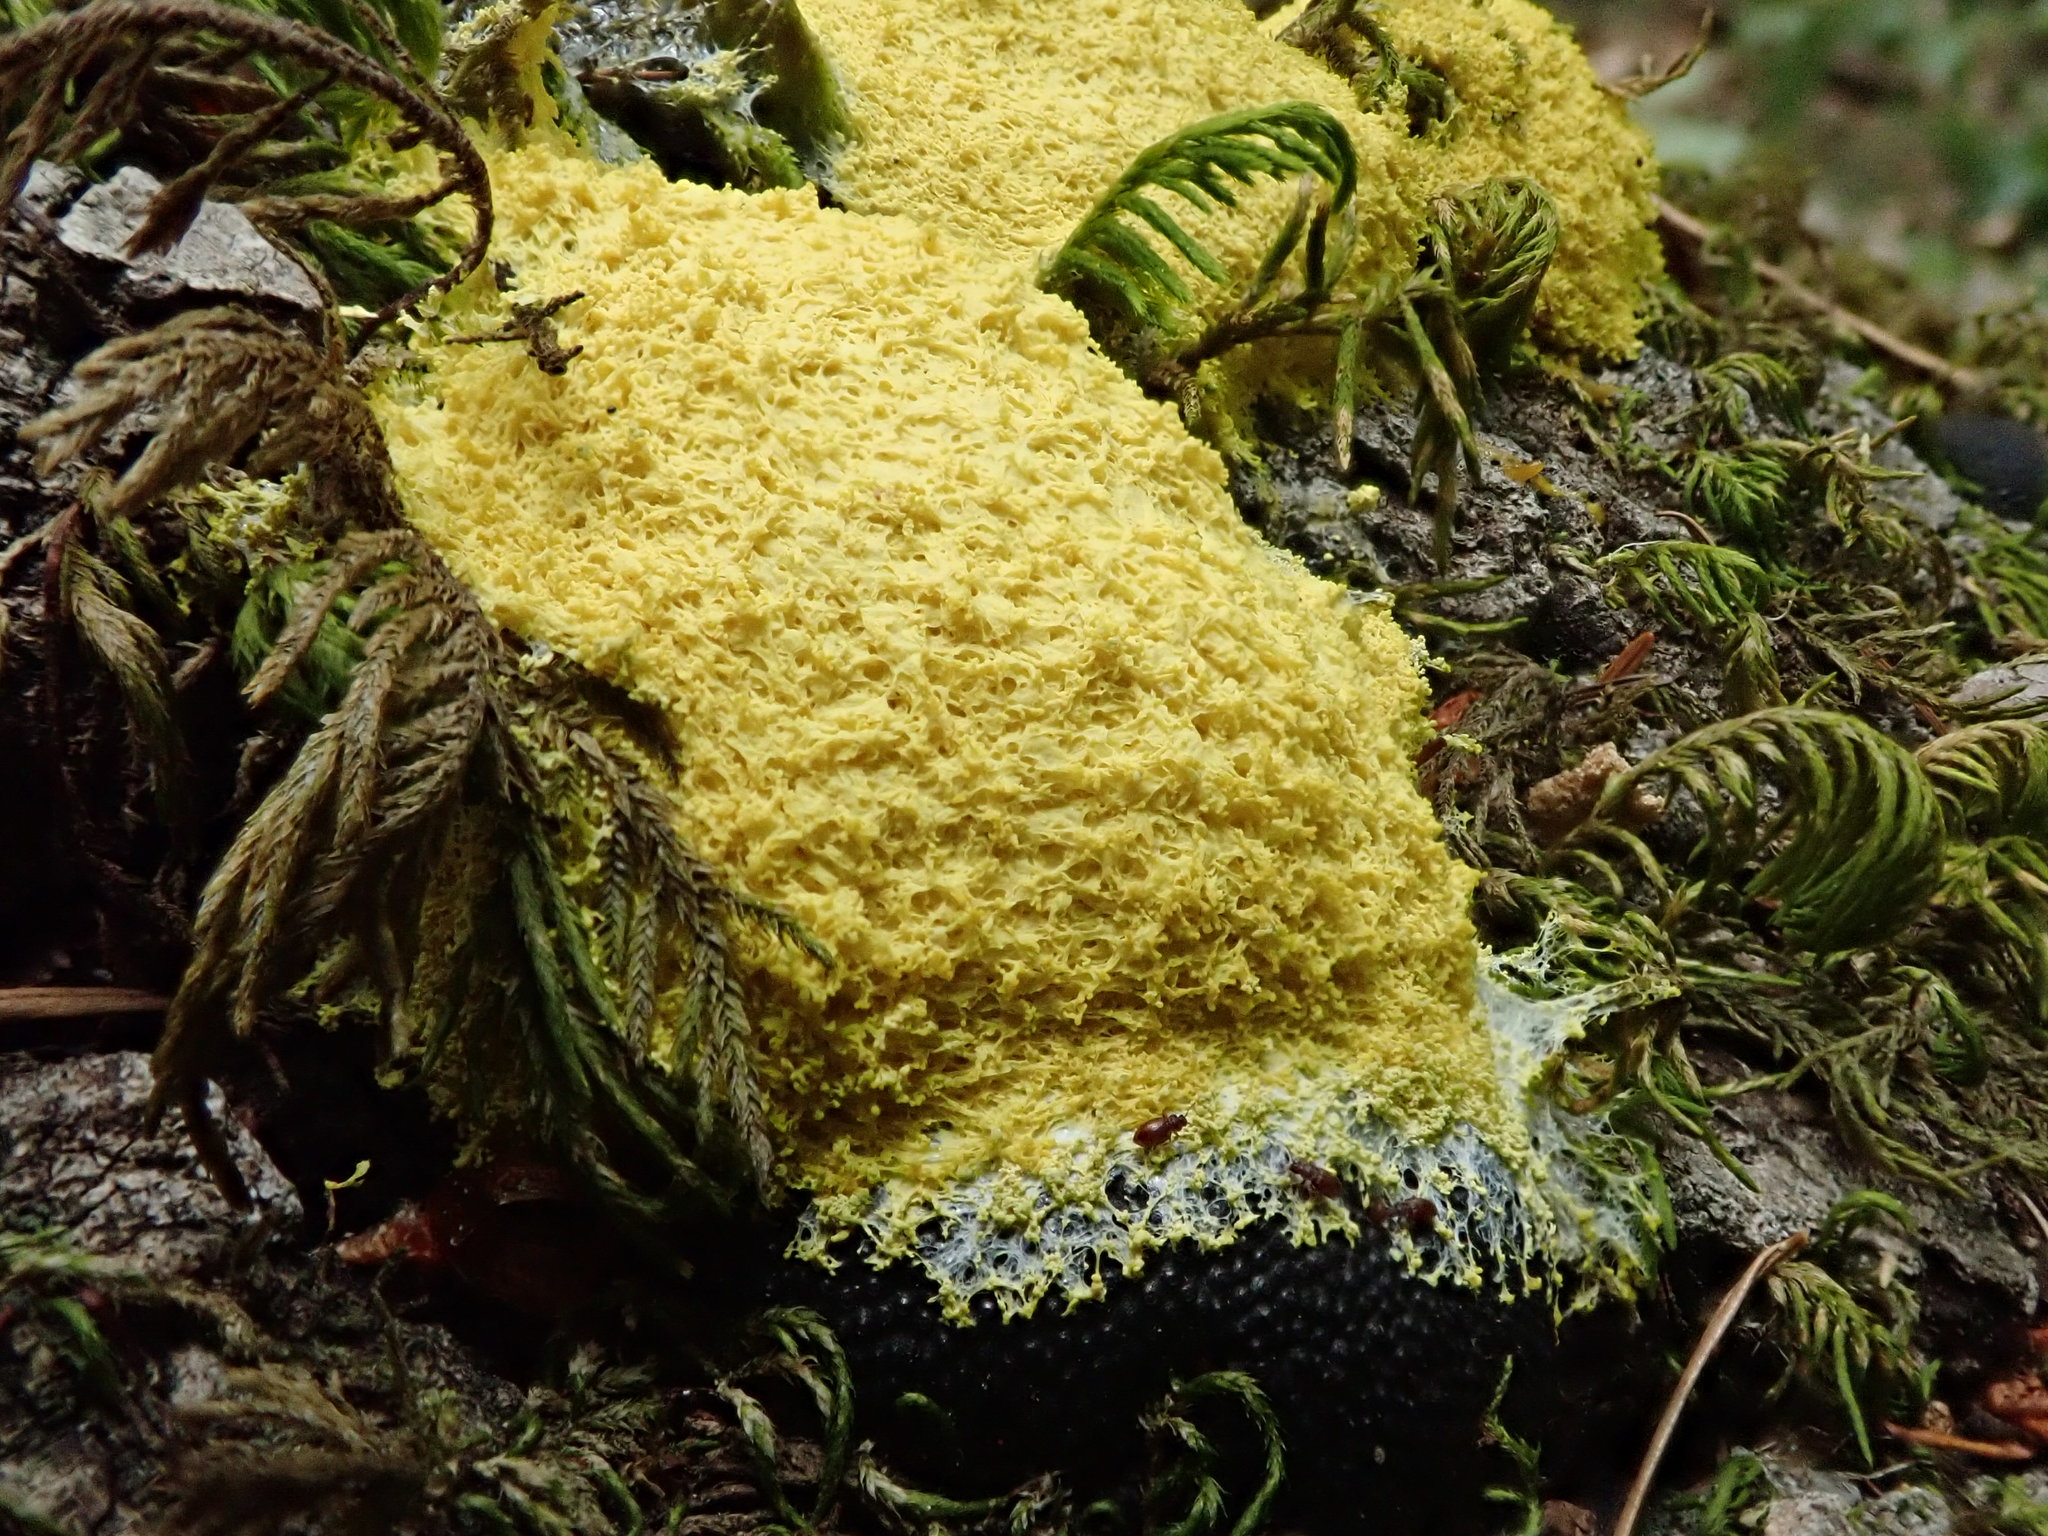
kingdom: Protozoa
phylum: Mycetozoa
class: Myxomycetes
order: Physarales
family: Physaraceae
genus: Fuligo
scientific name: Fuligo septica
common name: Dog vomit slime mold
